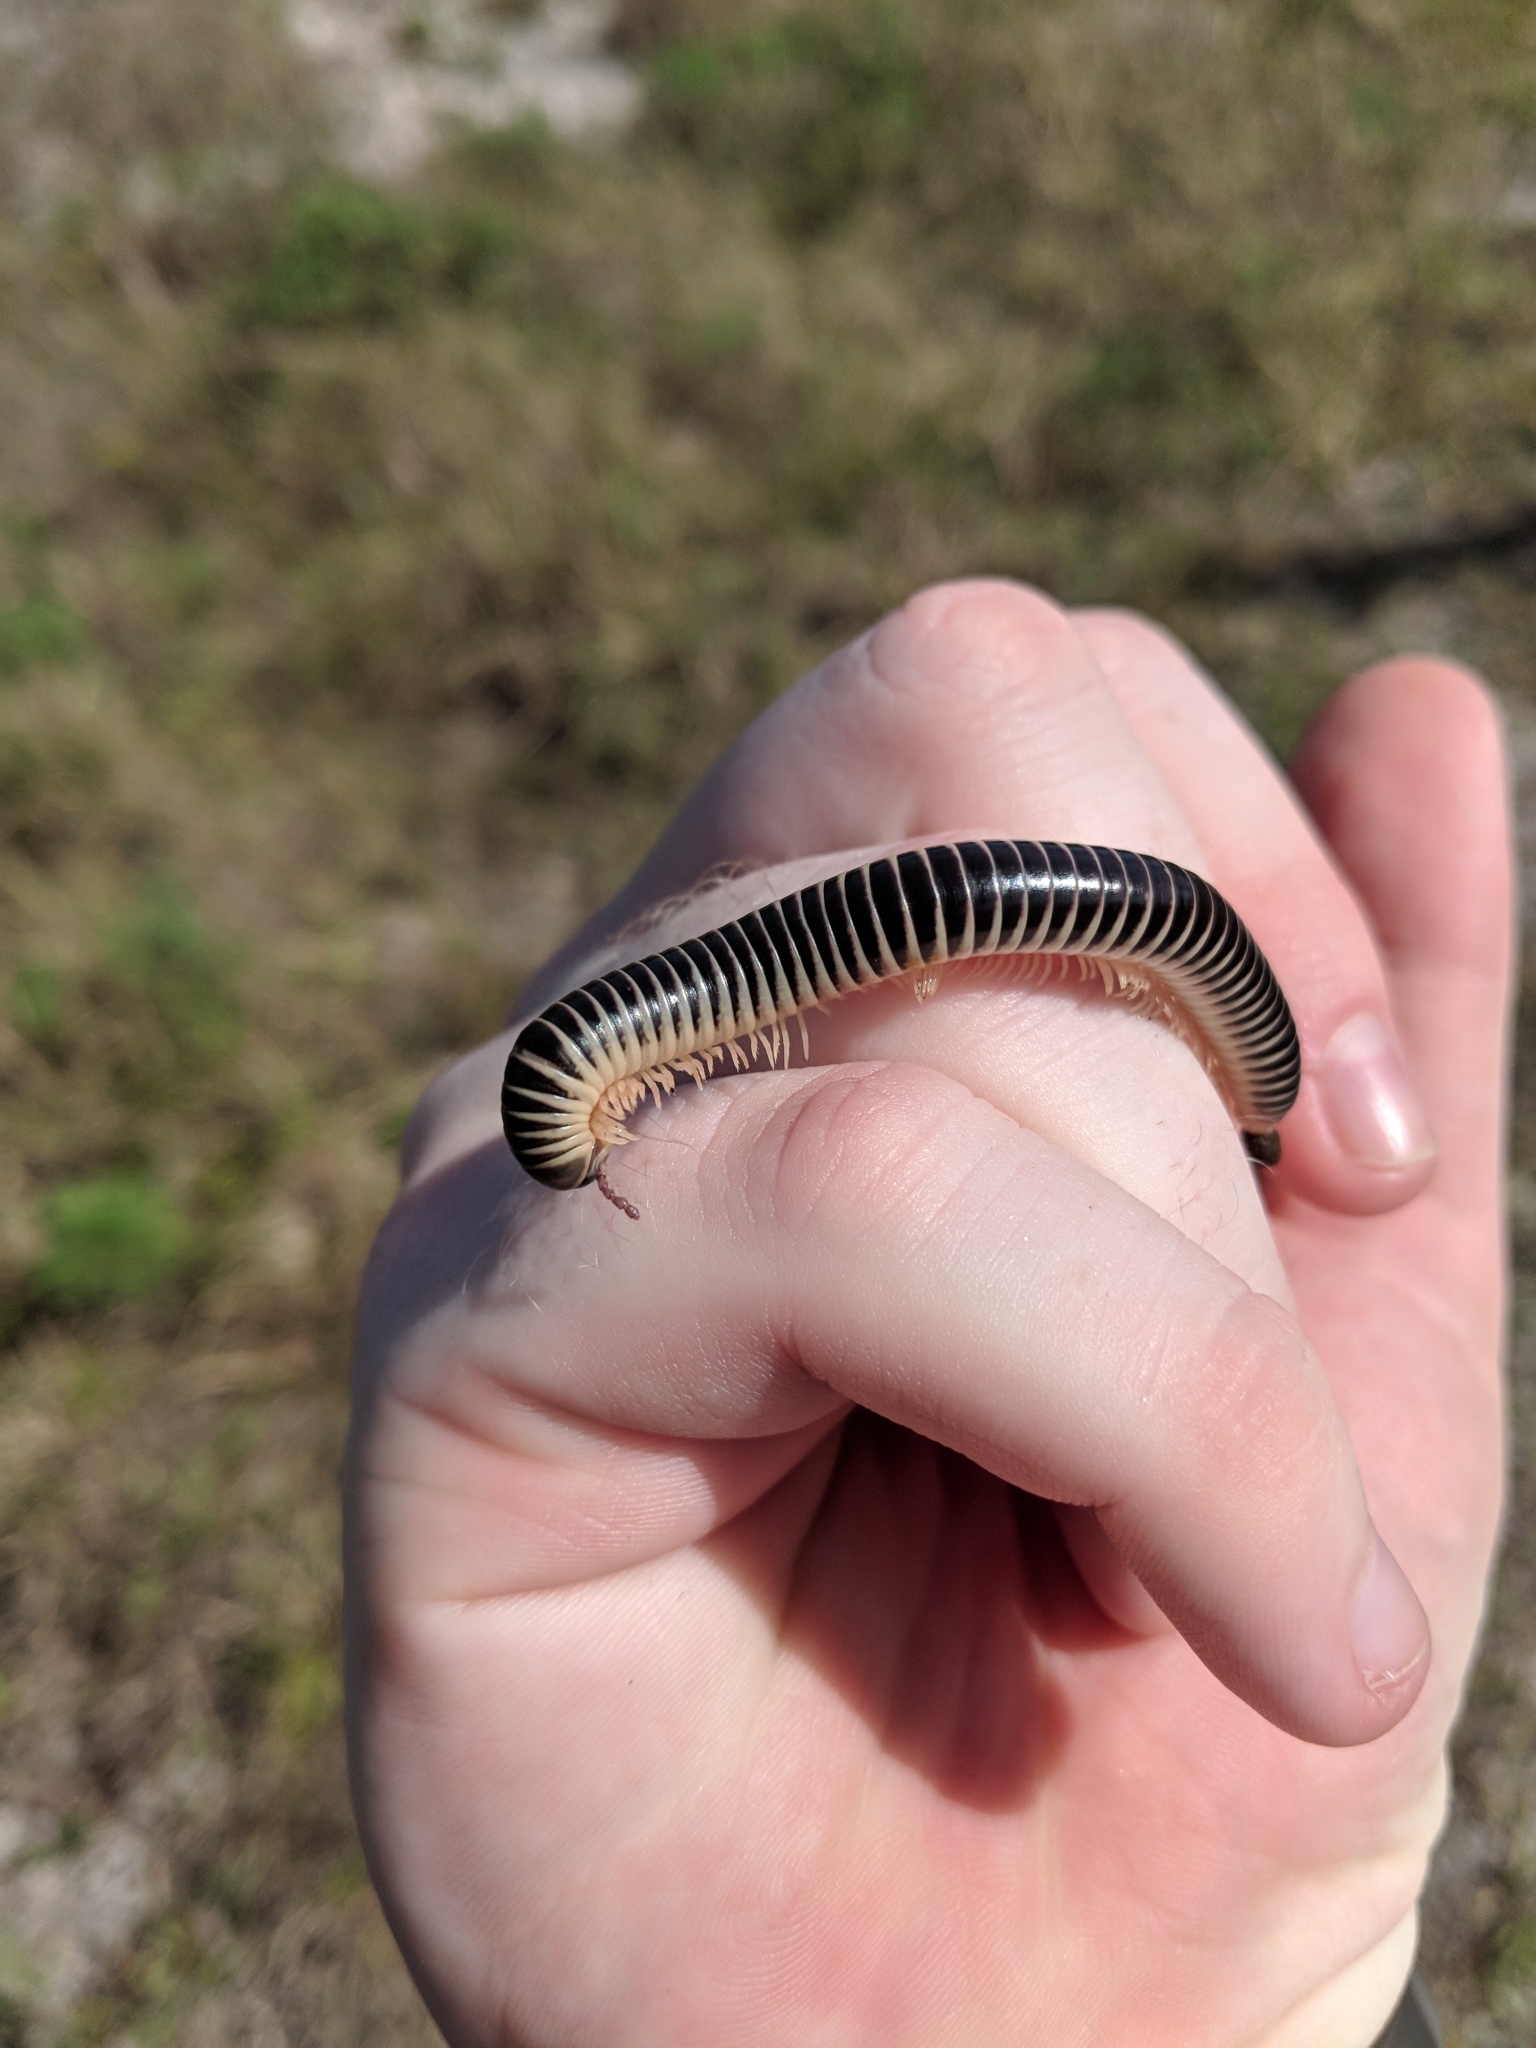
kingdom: Animalia
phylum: Arthropoda
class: Diplopoda
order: Spirobolida
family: Spirobolidae
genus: Chicobolus
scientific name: Chicobolus spinigerus
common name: Florida ivory millipede
